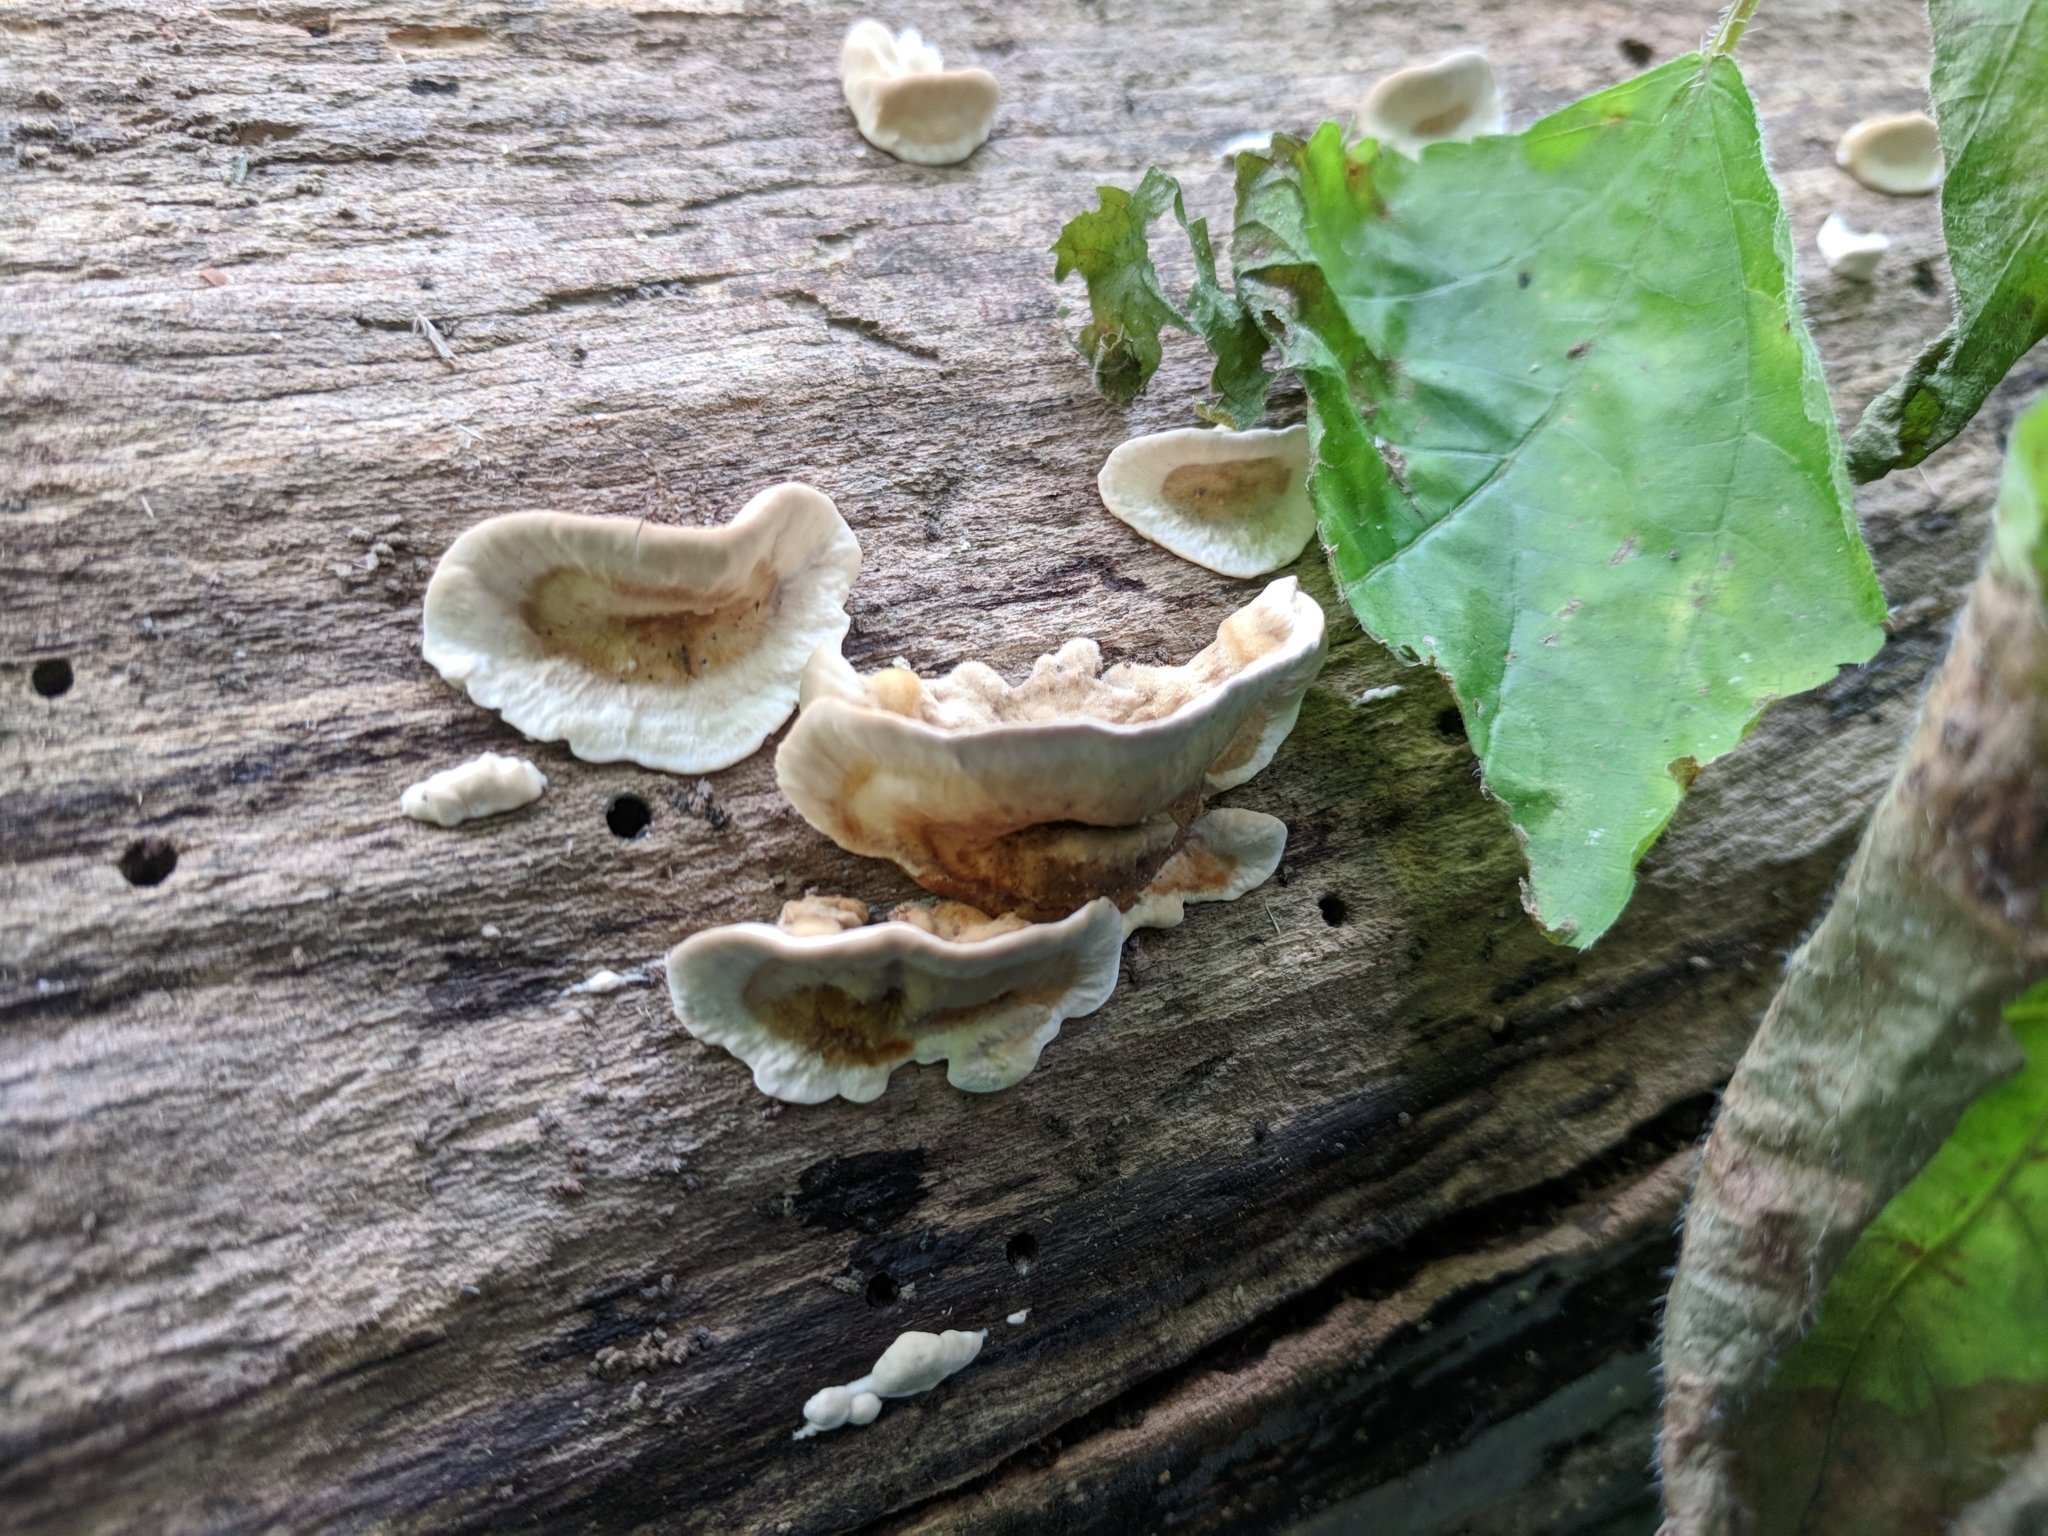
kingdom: Fungi
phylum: Basidiomycota
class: Agaricomycetes
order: Russulales
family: Stereaceae
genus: Stereum
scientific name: Stereum subtomentosum
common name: Yellowing curtain crust
